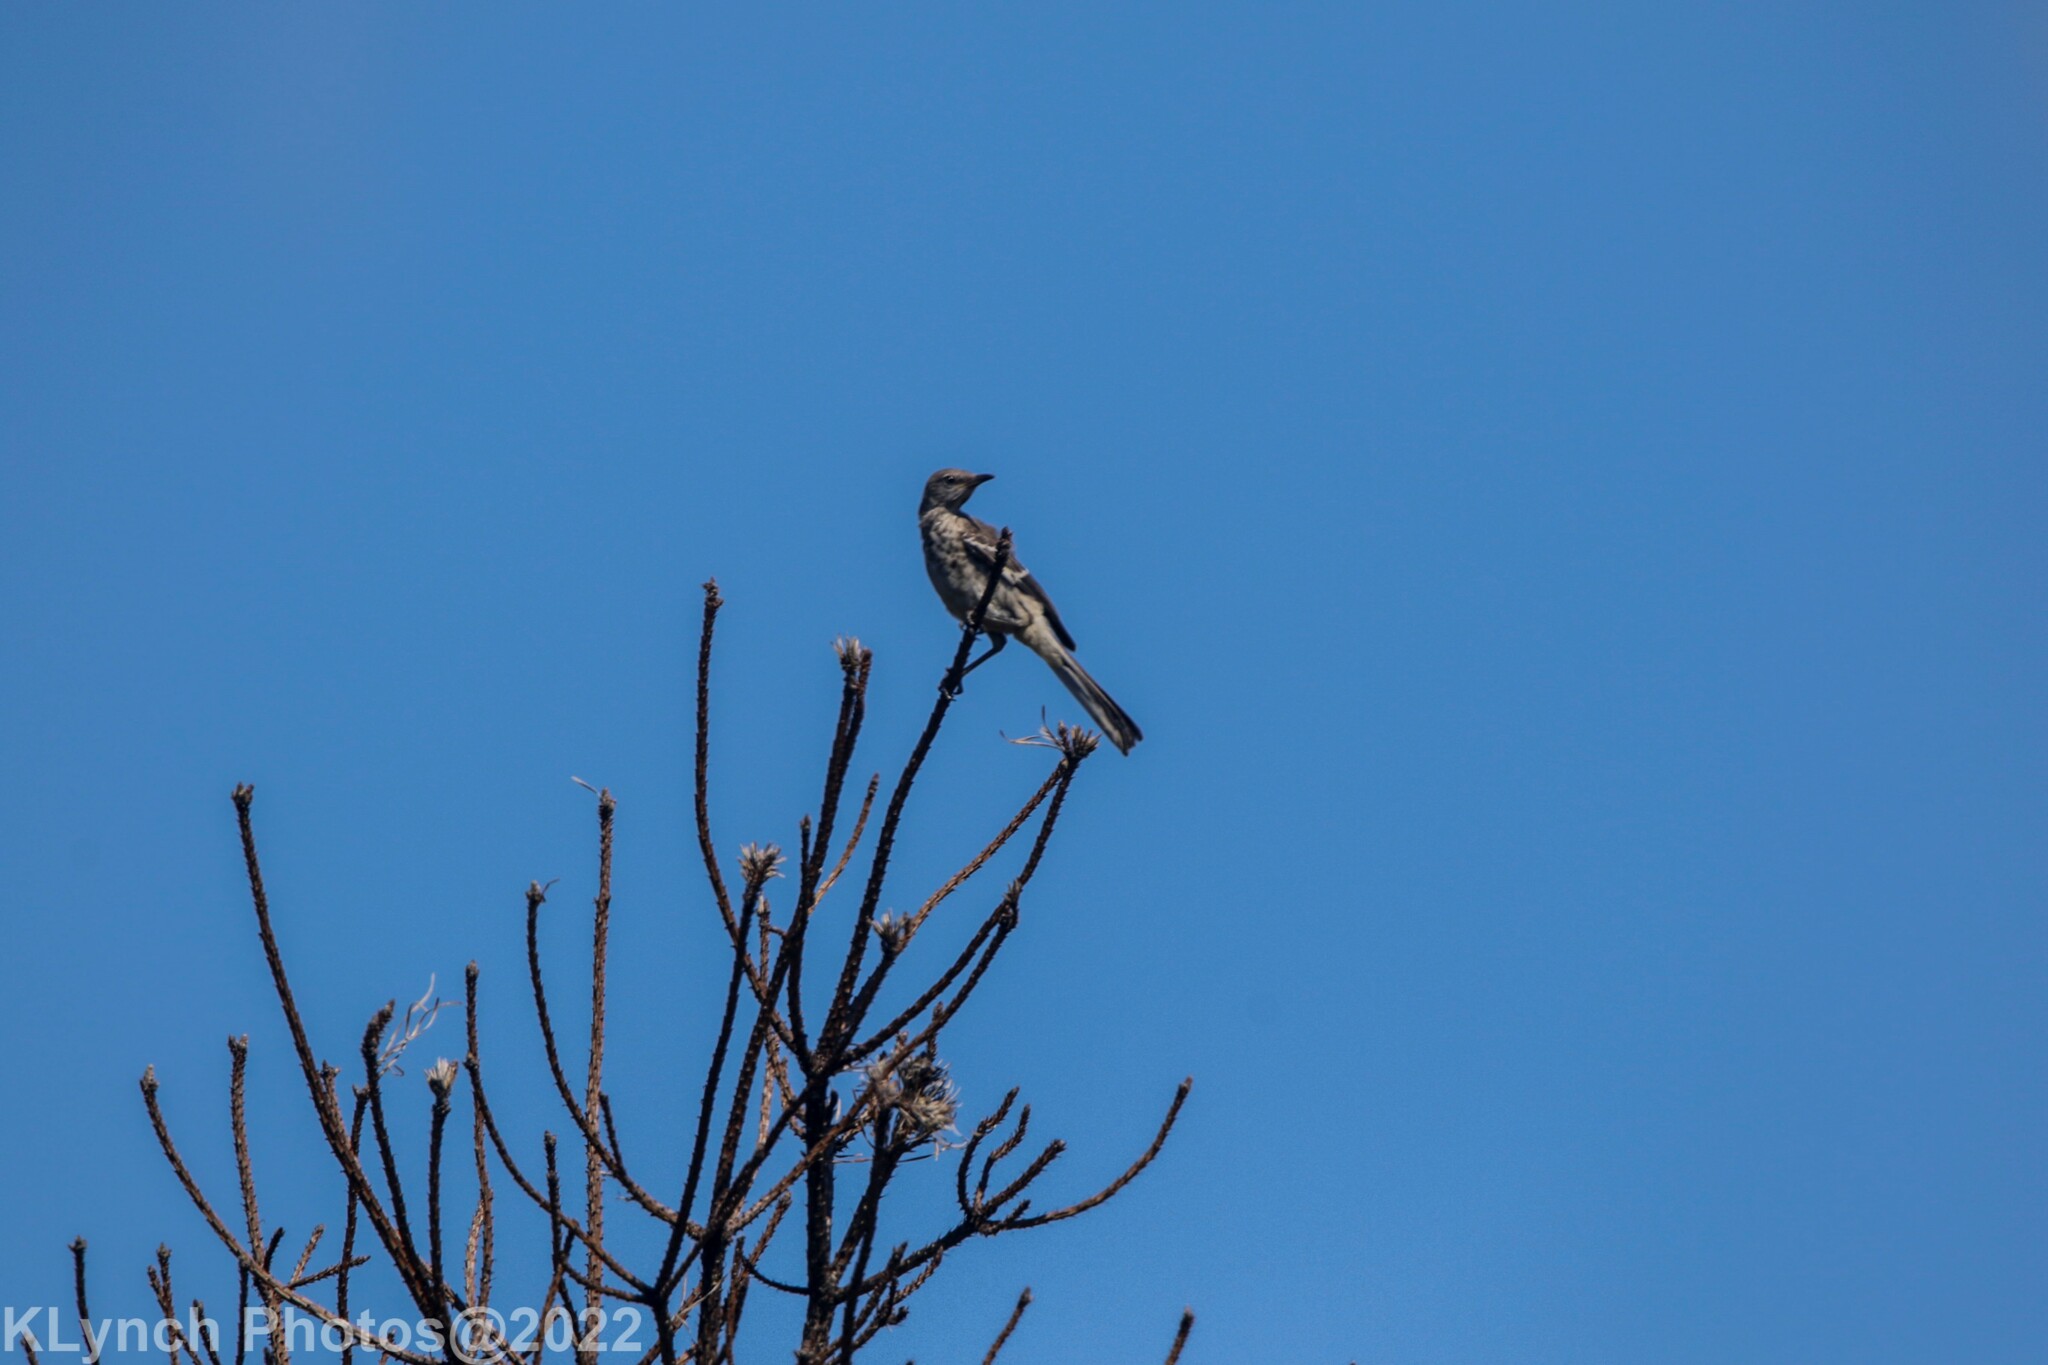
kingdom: Animalia
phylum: Chordata
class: Aves
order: Passeriformes
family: Mimidae
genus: Mimus
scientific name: Mimus polyglottos
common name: Northern mockingbird
